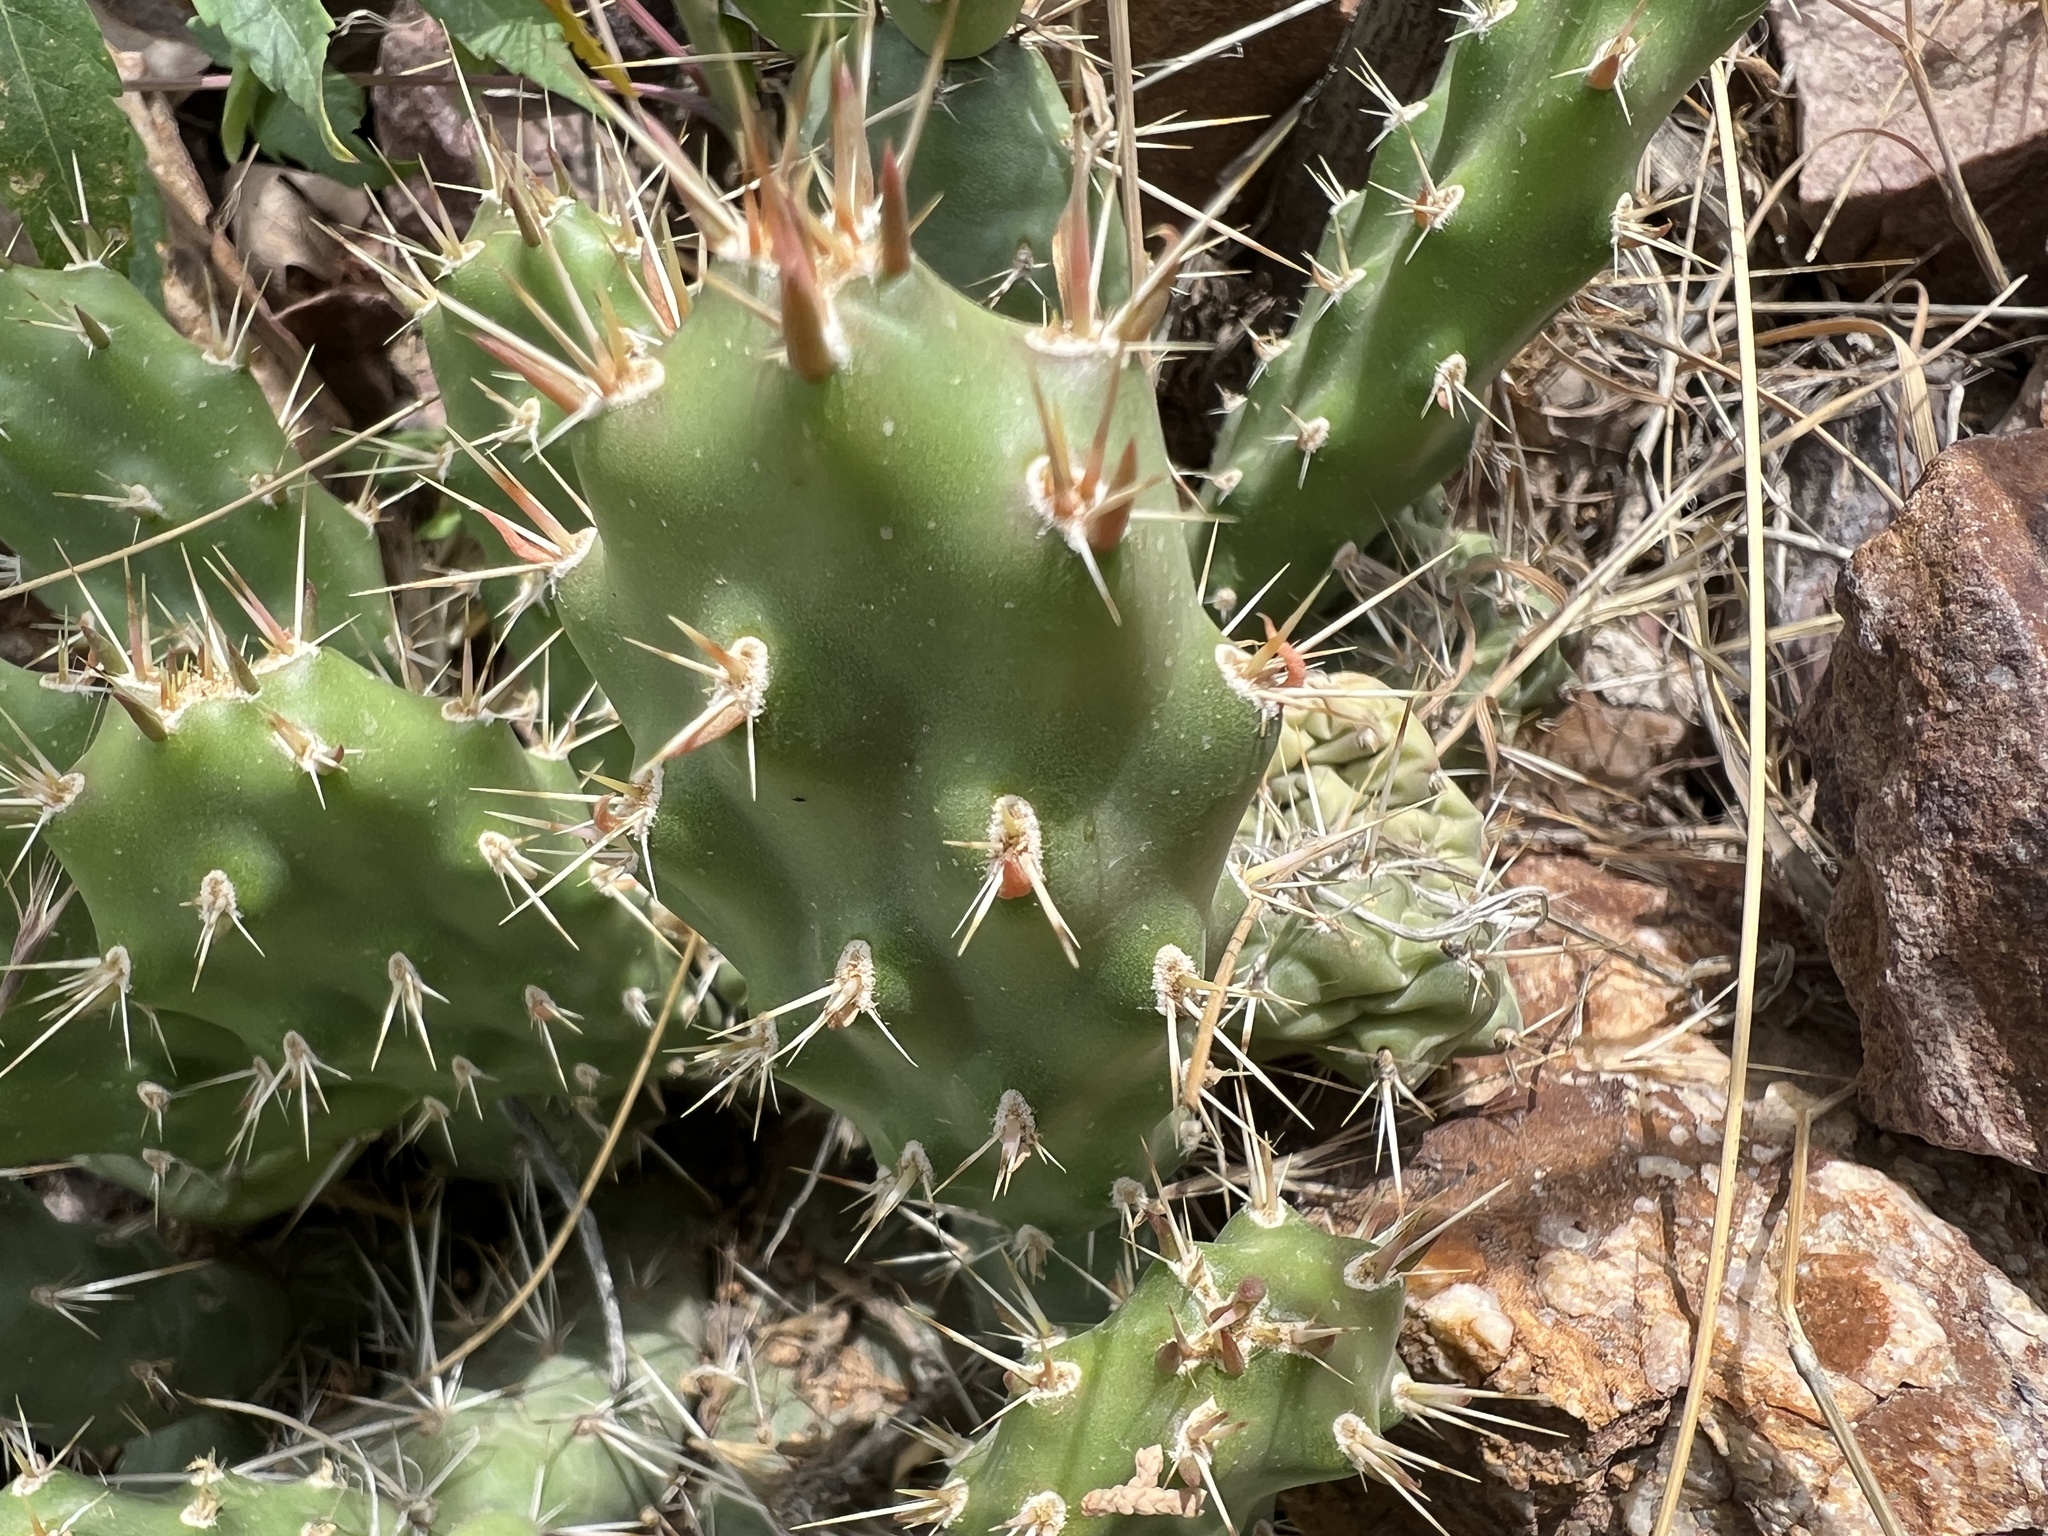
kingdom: Plantae
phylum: Tracheophyta
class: Magnoliopsida
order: Caryophyllales
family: Cactaceae
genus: Opuntia
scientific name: Opuntia fragilis
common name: Brittle cactus
